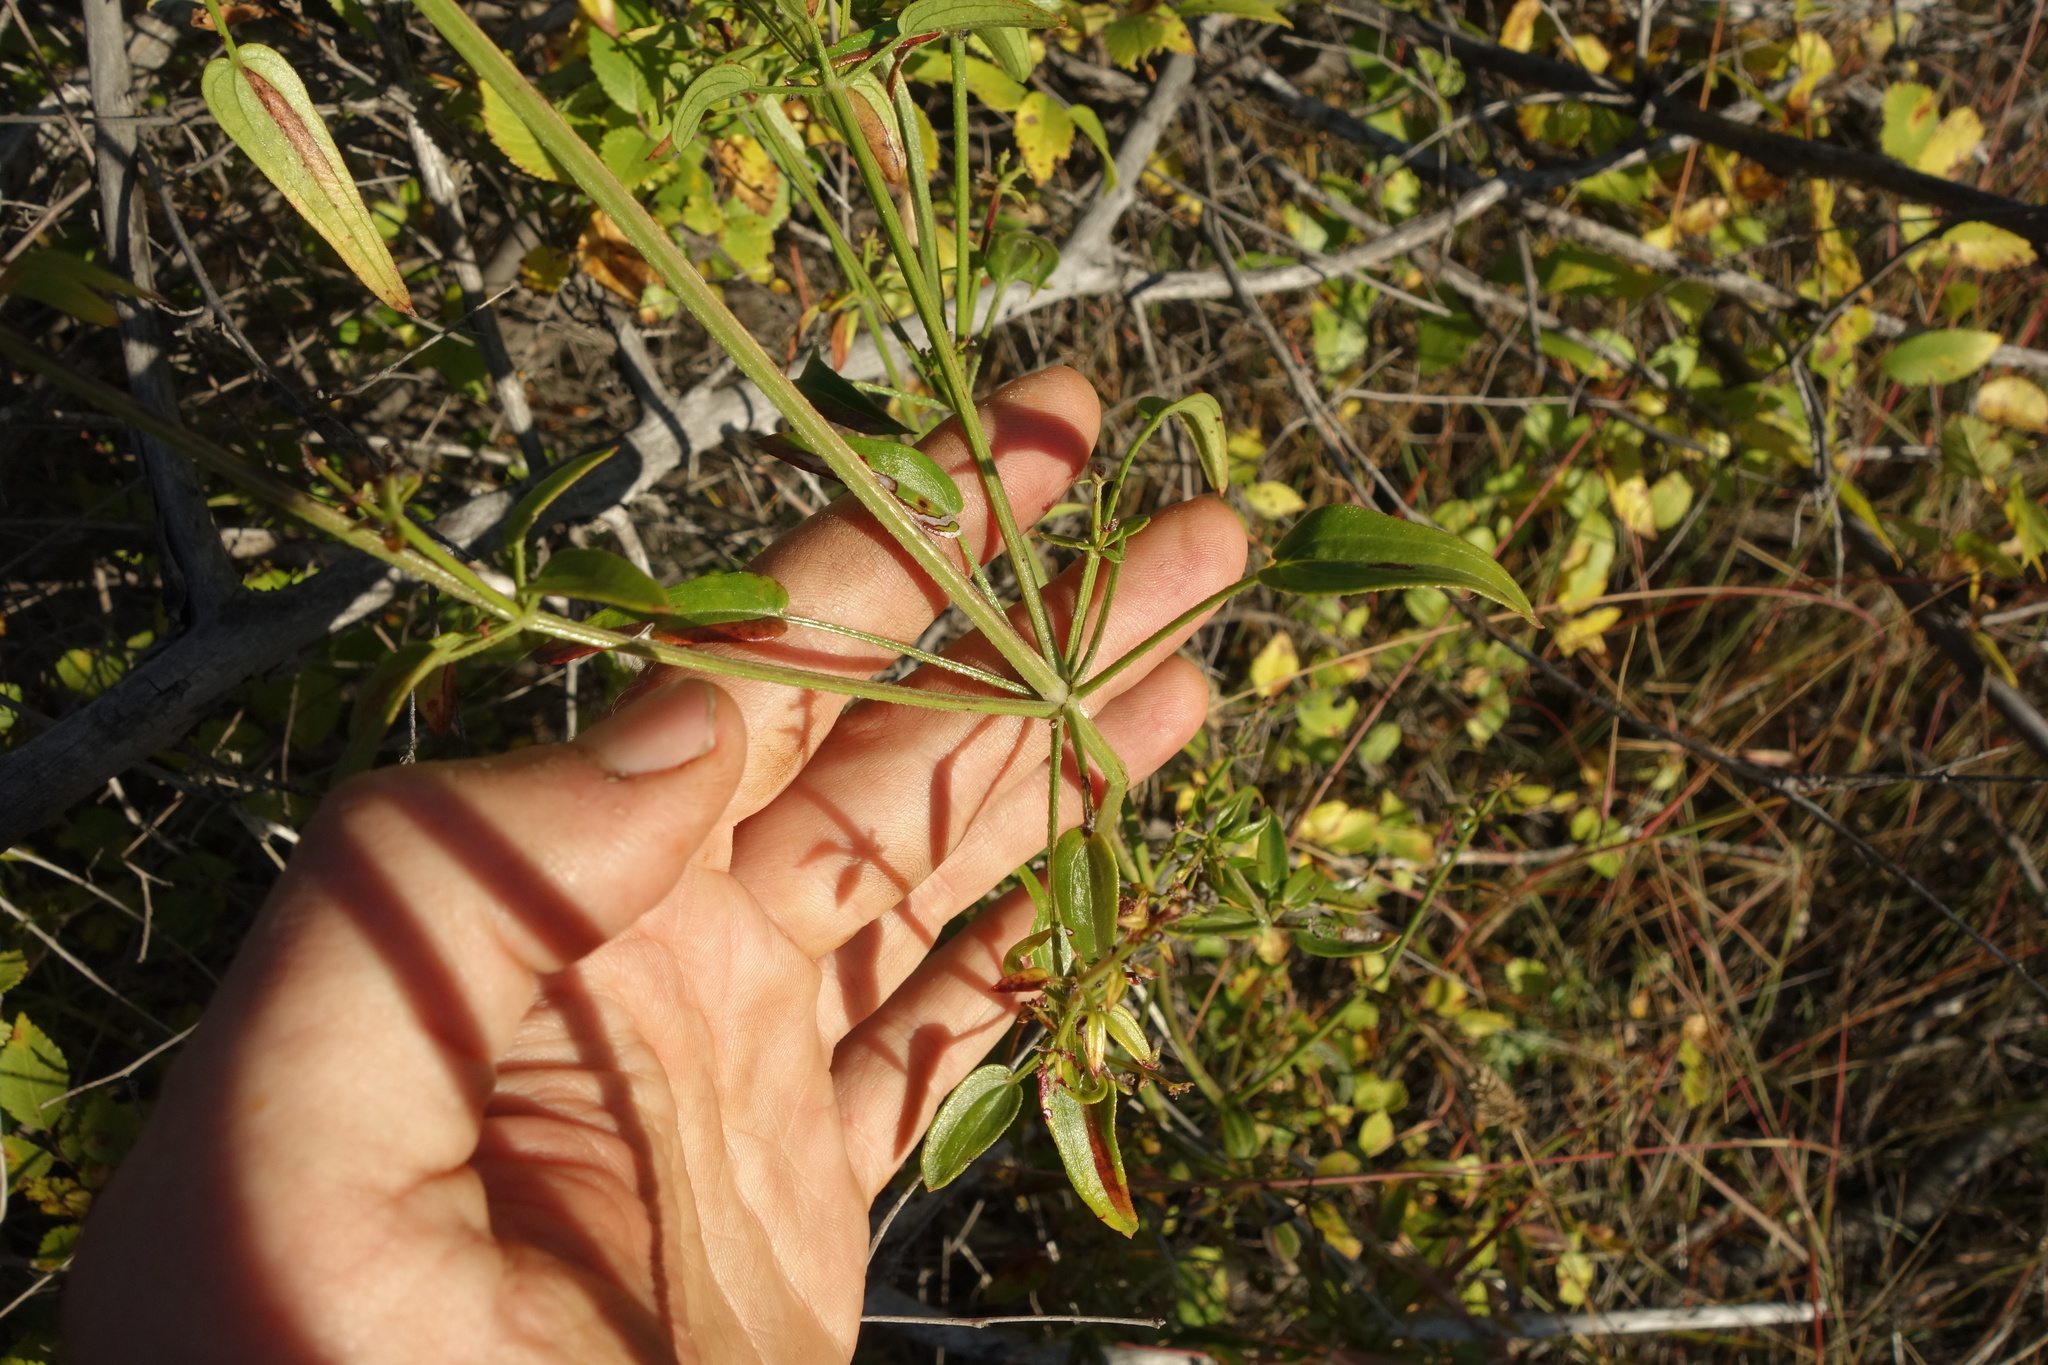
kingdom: Plantae
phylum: Tracheophyta
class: Magnoliopsida
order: Gentianales
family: Rubiaceae
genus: Rubia
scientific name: Rubia cordifolia
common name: Indian madder
